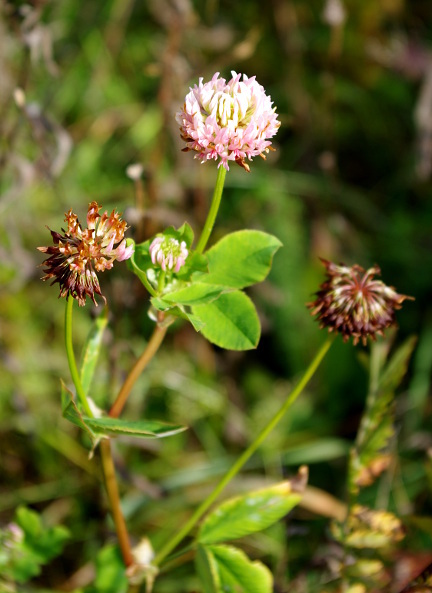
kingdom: Plantae
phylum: Tracheophyta
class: Magnoliopsida
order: Fabales
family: Fabaceae
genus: Trifolium
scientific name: Trifolium hybridum
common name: Alsike clover
